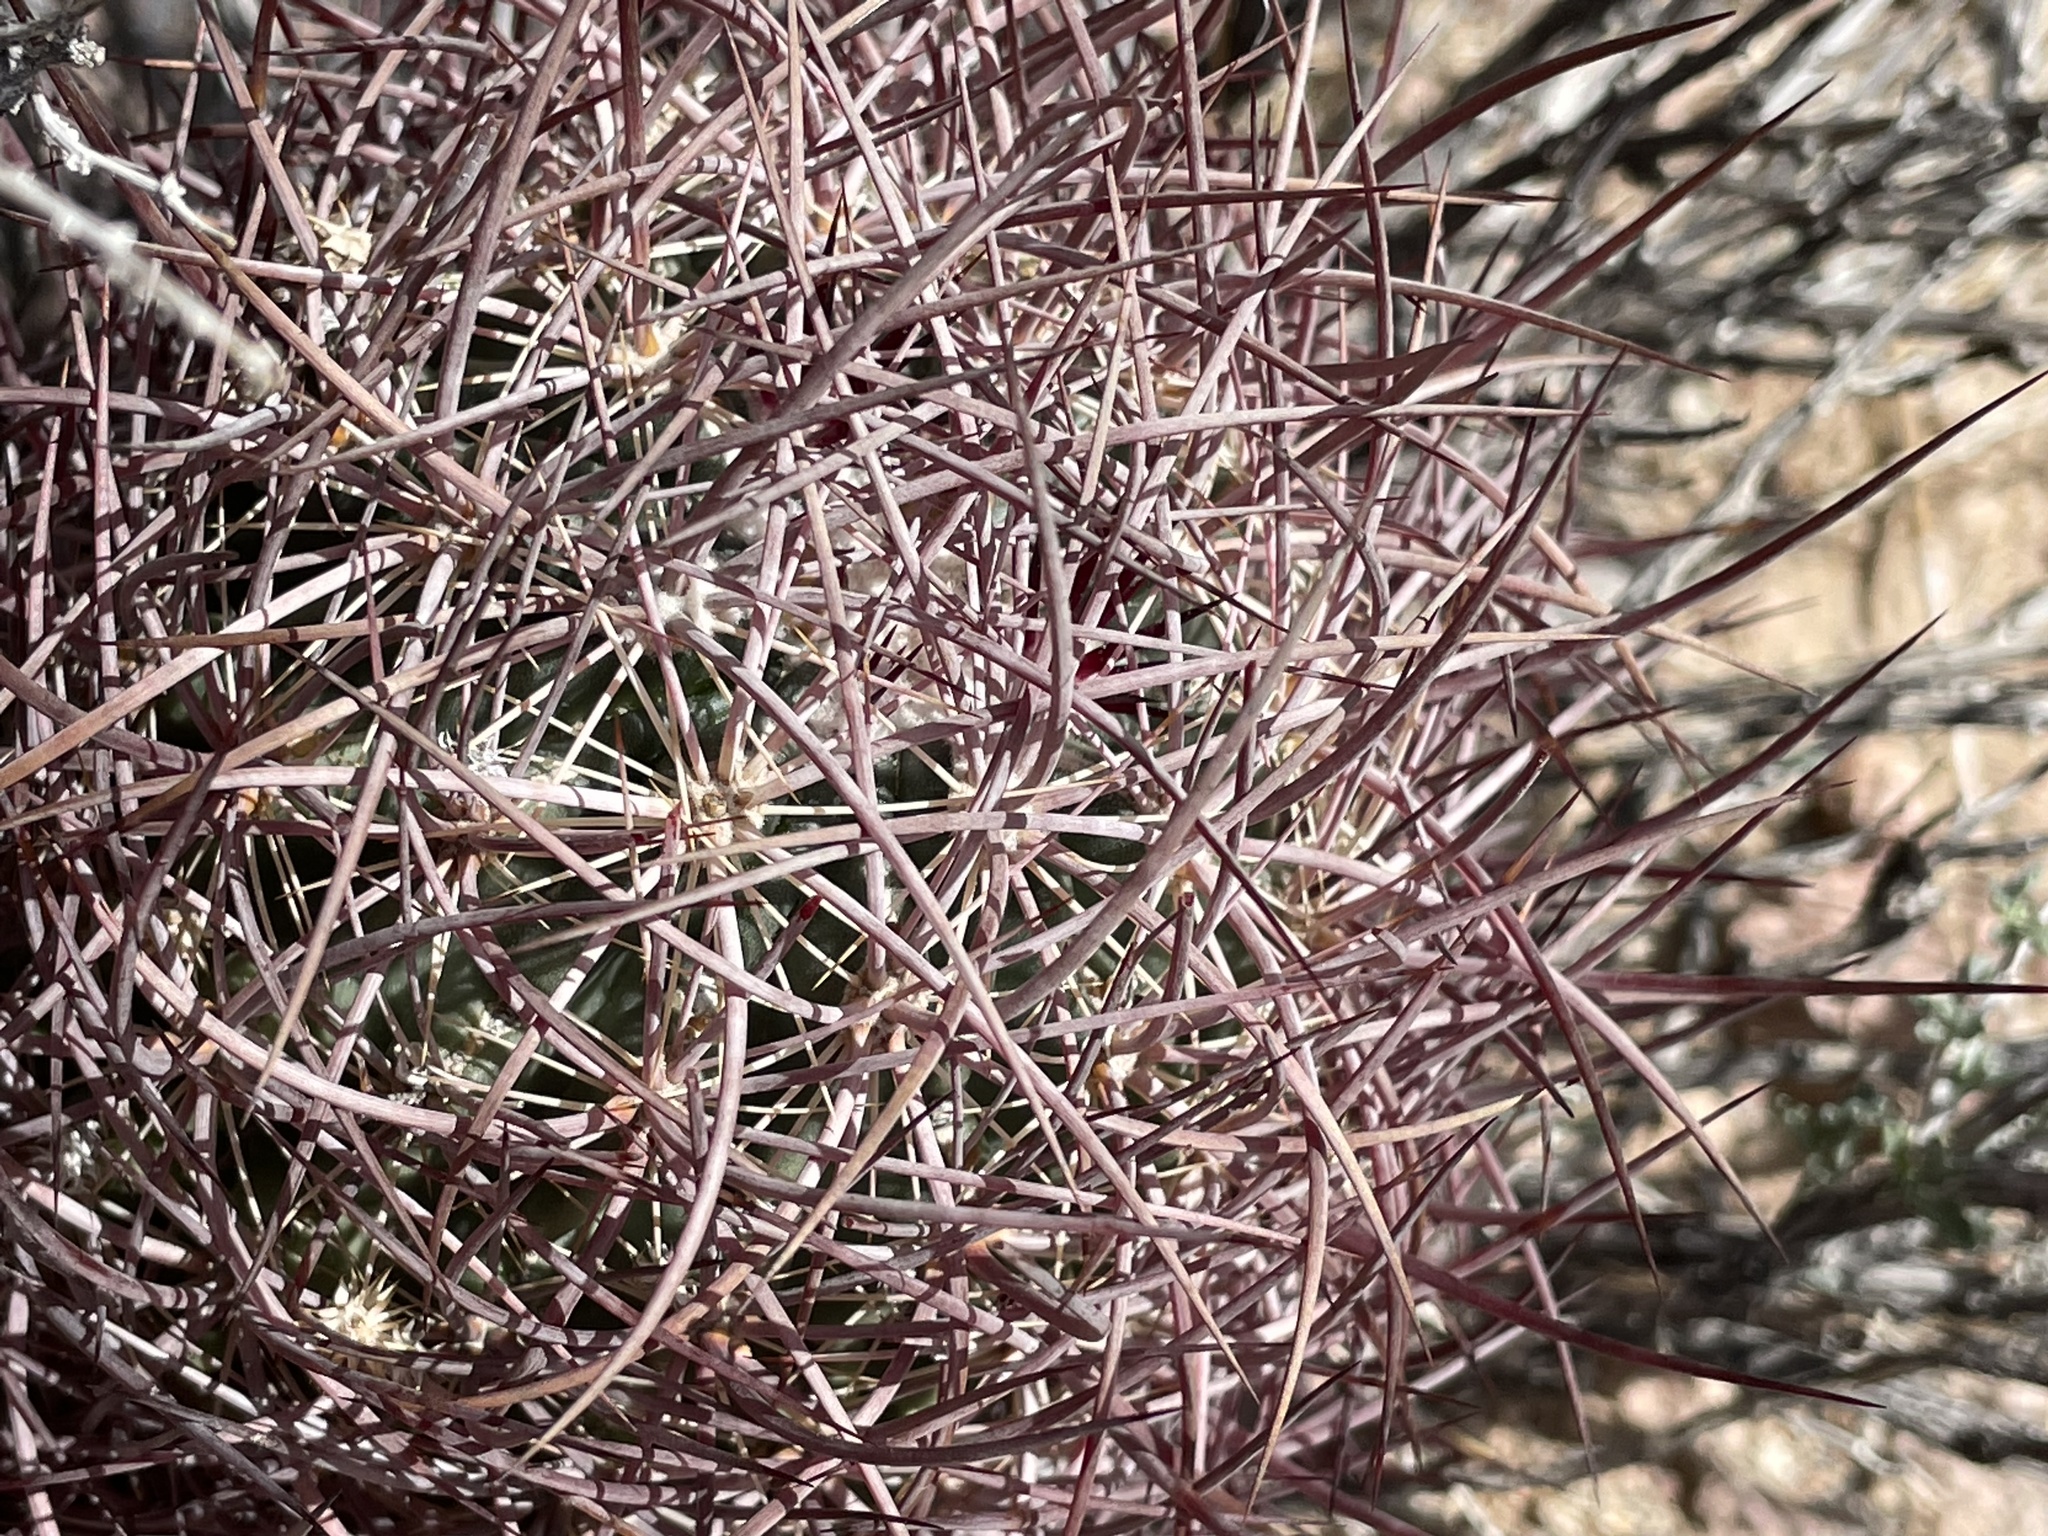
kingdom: Plantae
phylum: Tracheophyta
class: Magnoliopsida
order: Caryophyllales
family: Cactaceae
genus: Sclerocactus
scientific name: Sclerocactus johnsonii
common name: Eight-spine fishhook cactus
